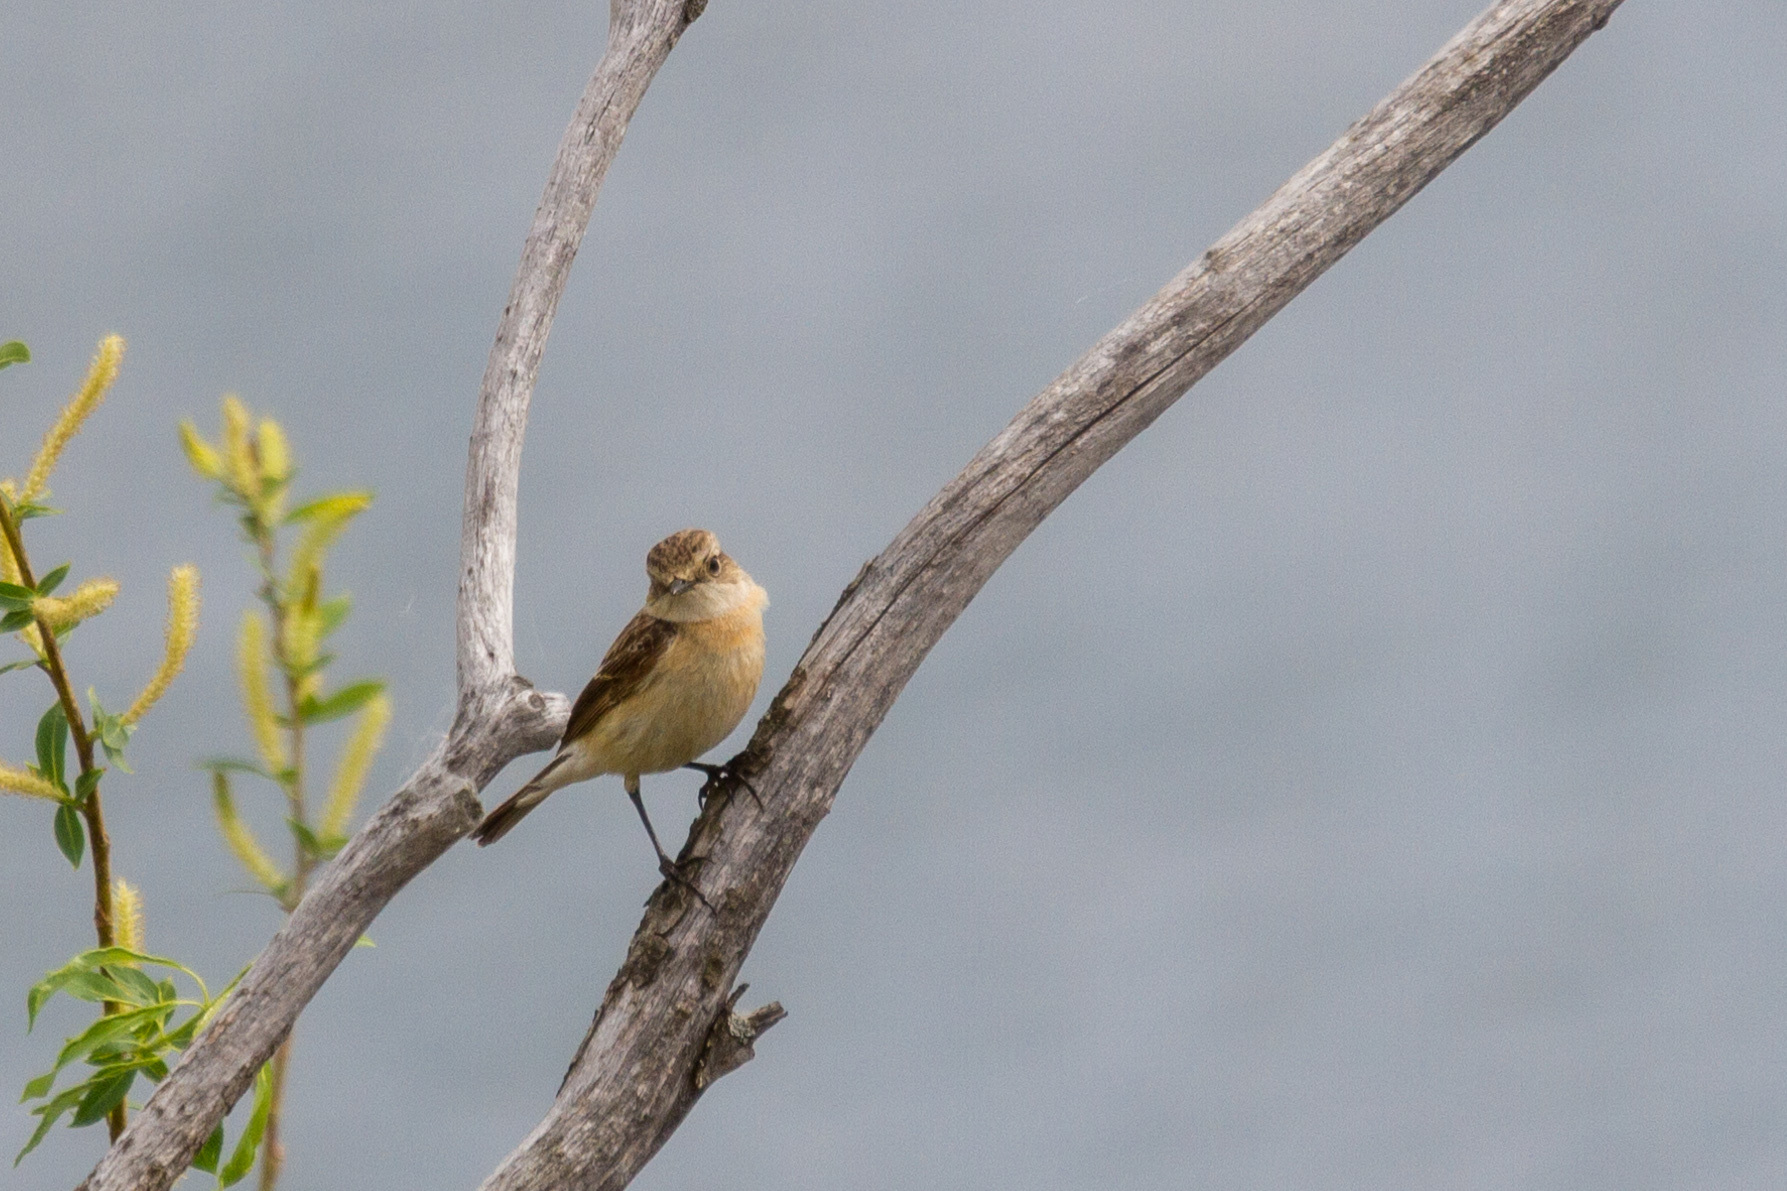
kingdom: Animalia
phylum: Chordata
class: Aves
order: Passeriformes
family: Muscicapidae
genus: Saxicola
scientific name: Saxicola maurus
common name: Siberian stonechat
